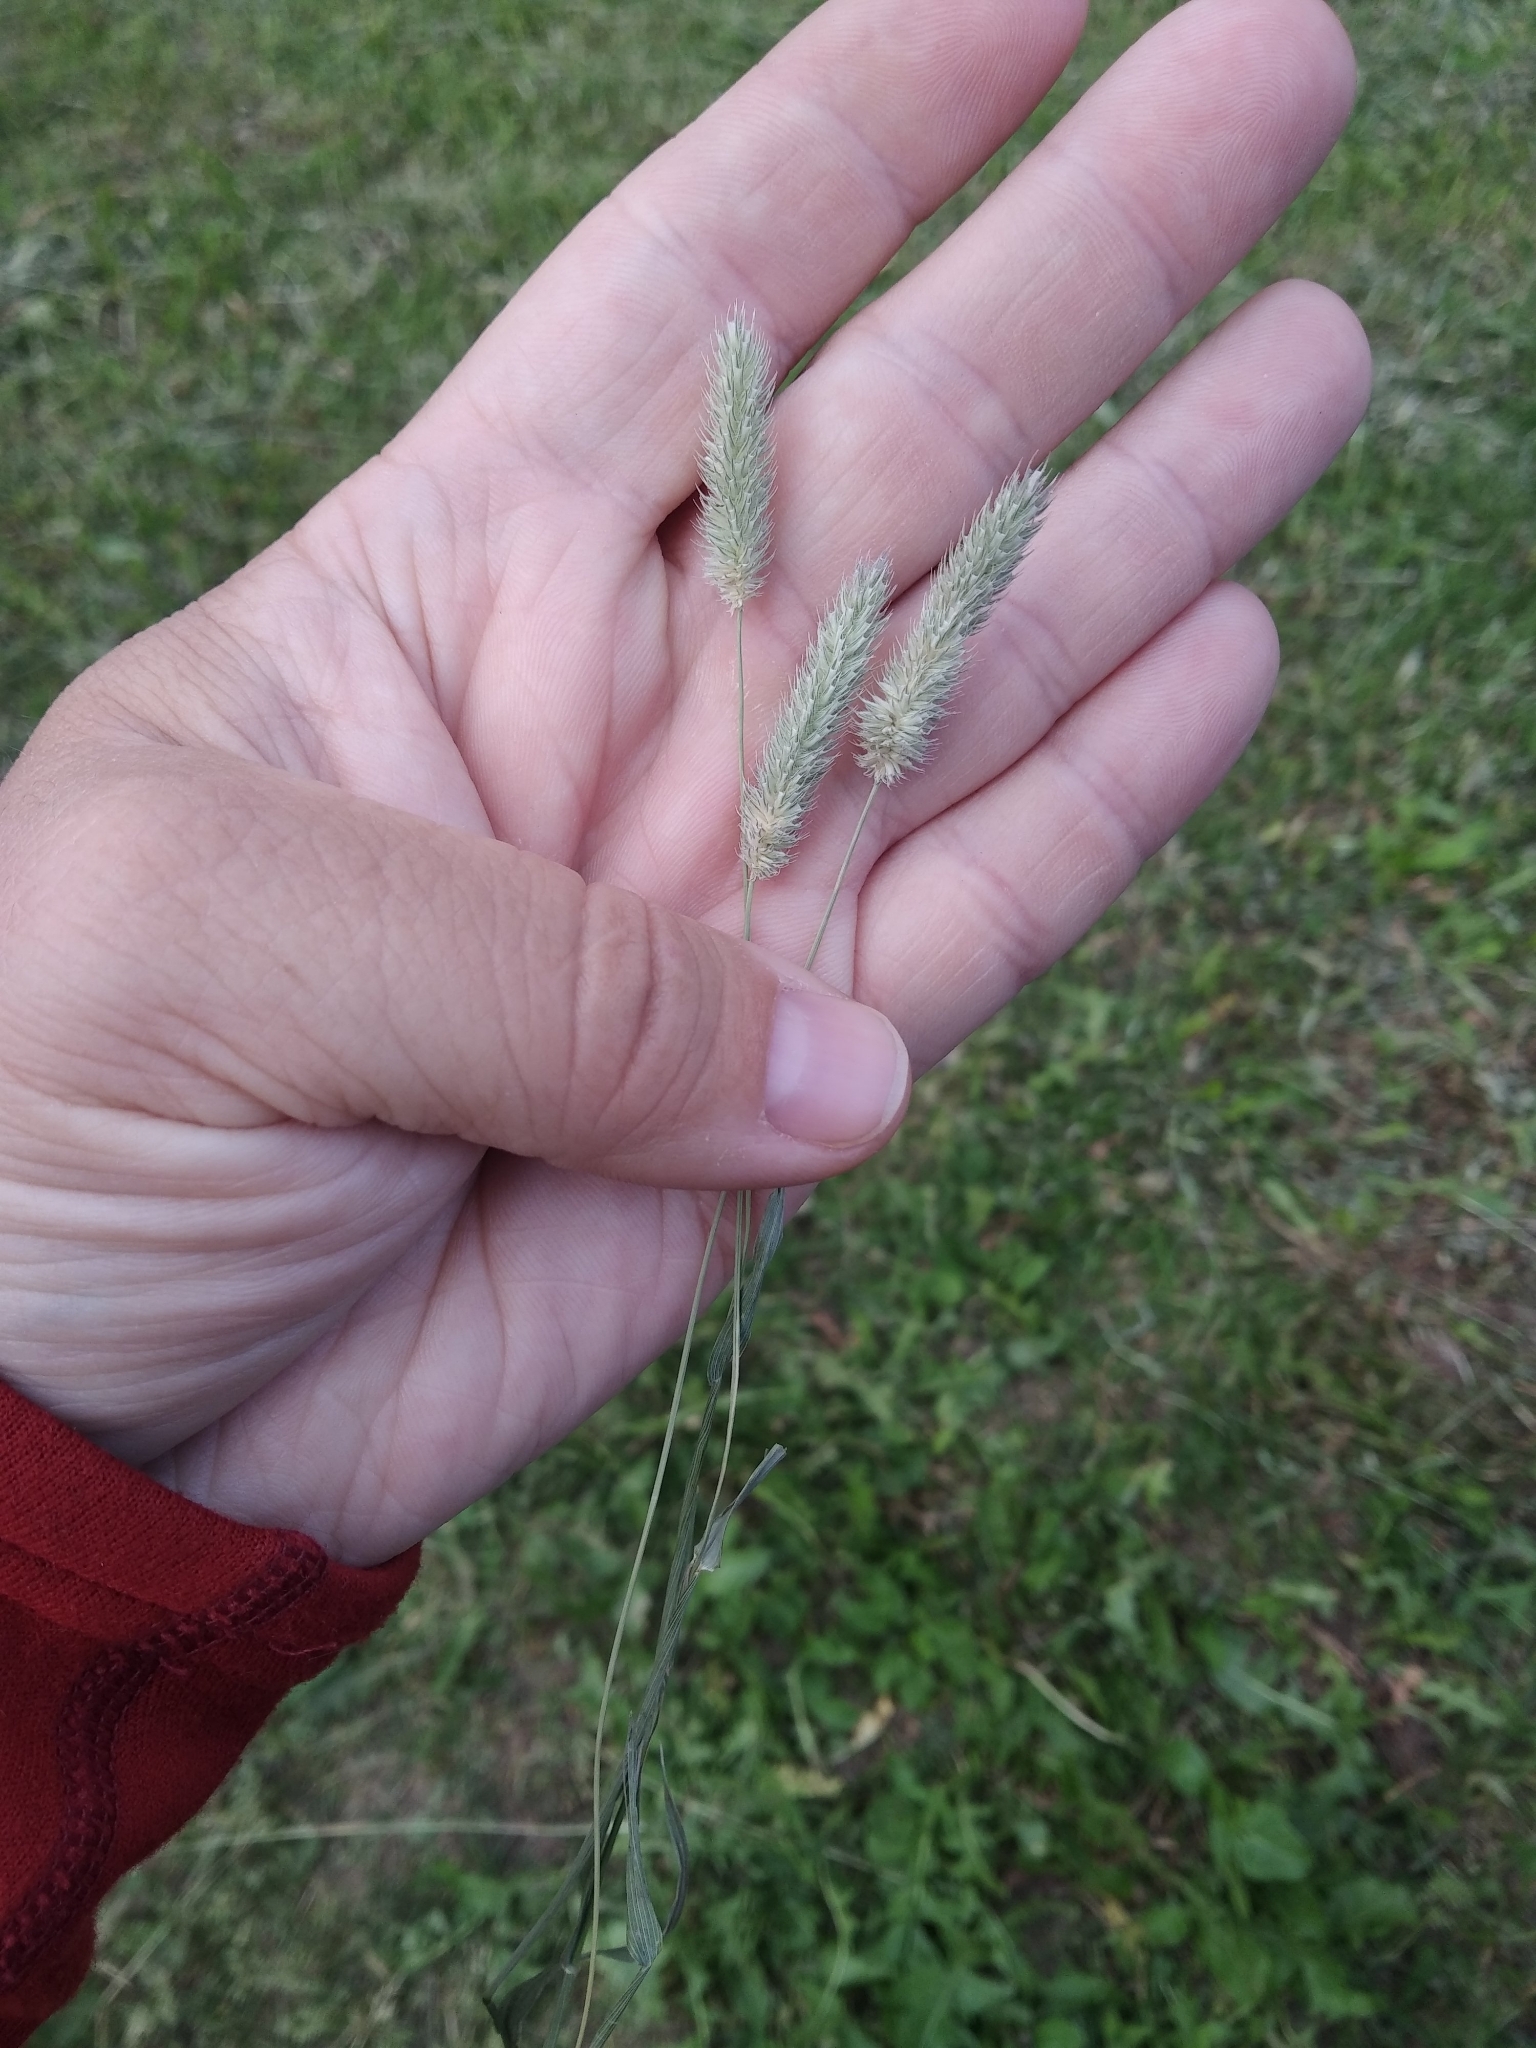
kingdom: Plantae
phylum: Tracheophyta
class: Liliopsida
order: Poales
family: Poaceae
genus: Phleum
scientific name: Phleum pratense
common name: Timothy grass
